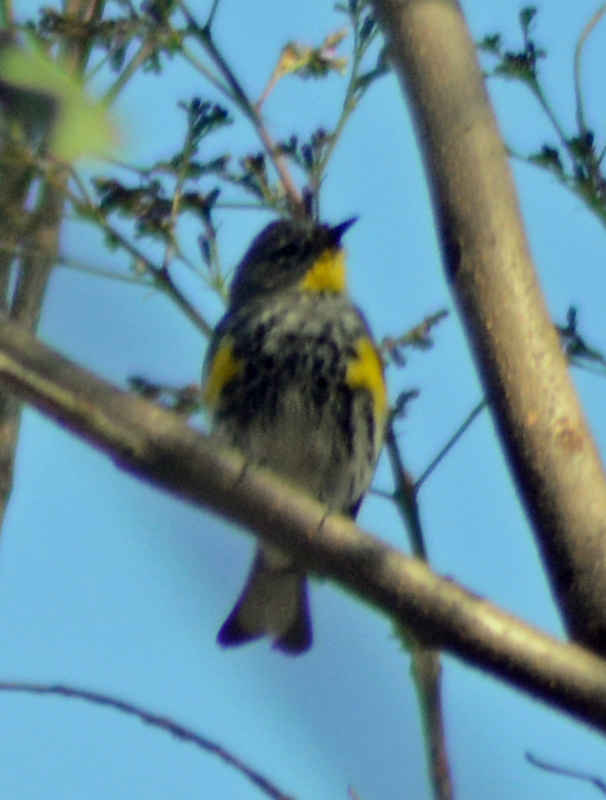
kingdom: Animalia
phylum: Chordata
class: Aves
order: Passeriformes
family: Parulidae
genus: Setophaga
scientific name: Setophaga auduboni
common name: Audubon's warbler
